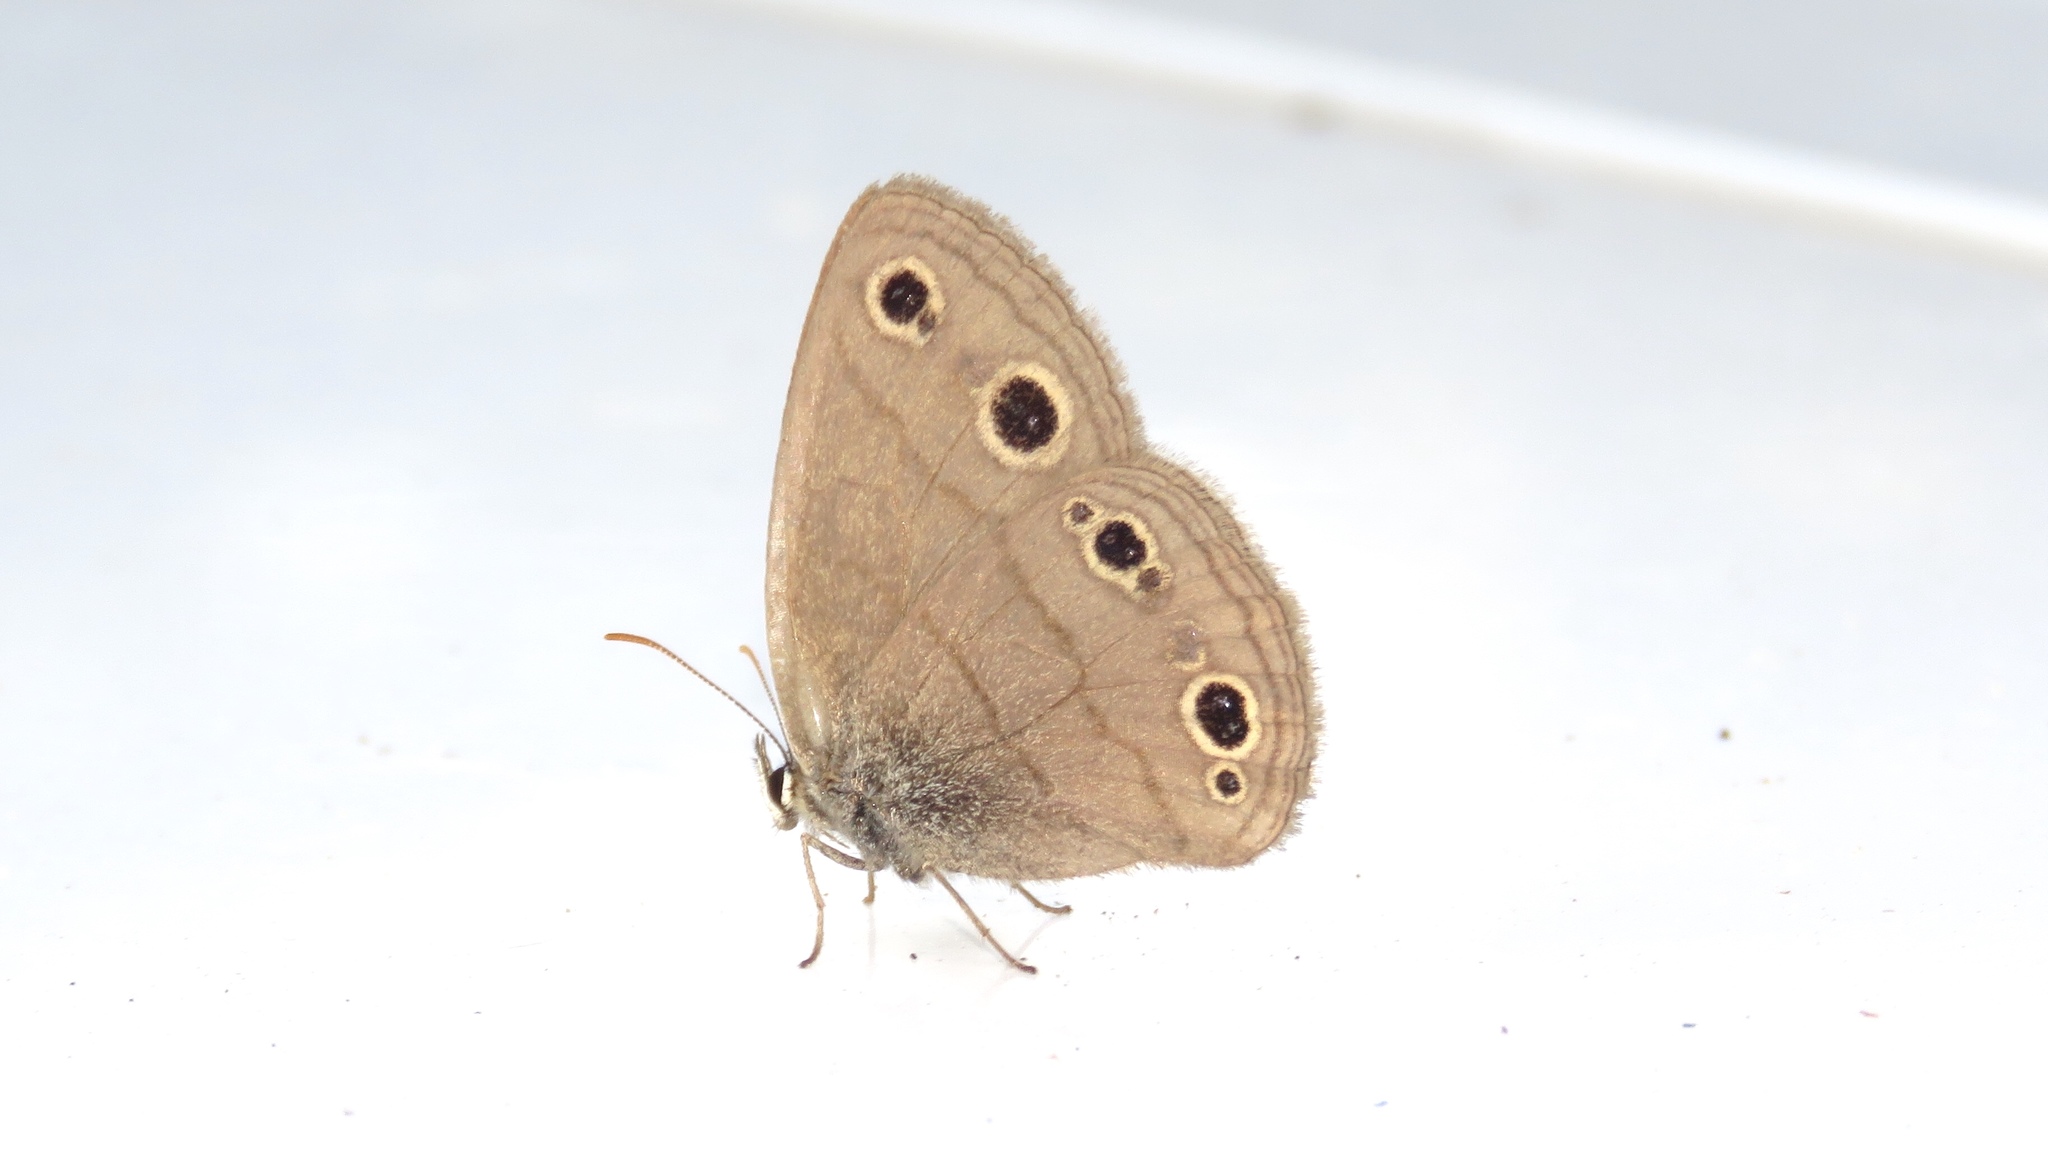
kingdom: Animalia
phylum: Arthropoda
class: Insecta
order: Lepidoptera
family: Nymphalidae
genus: Euptychia
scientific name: Euptychia cymela
